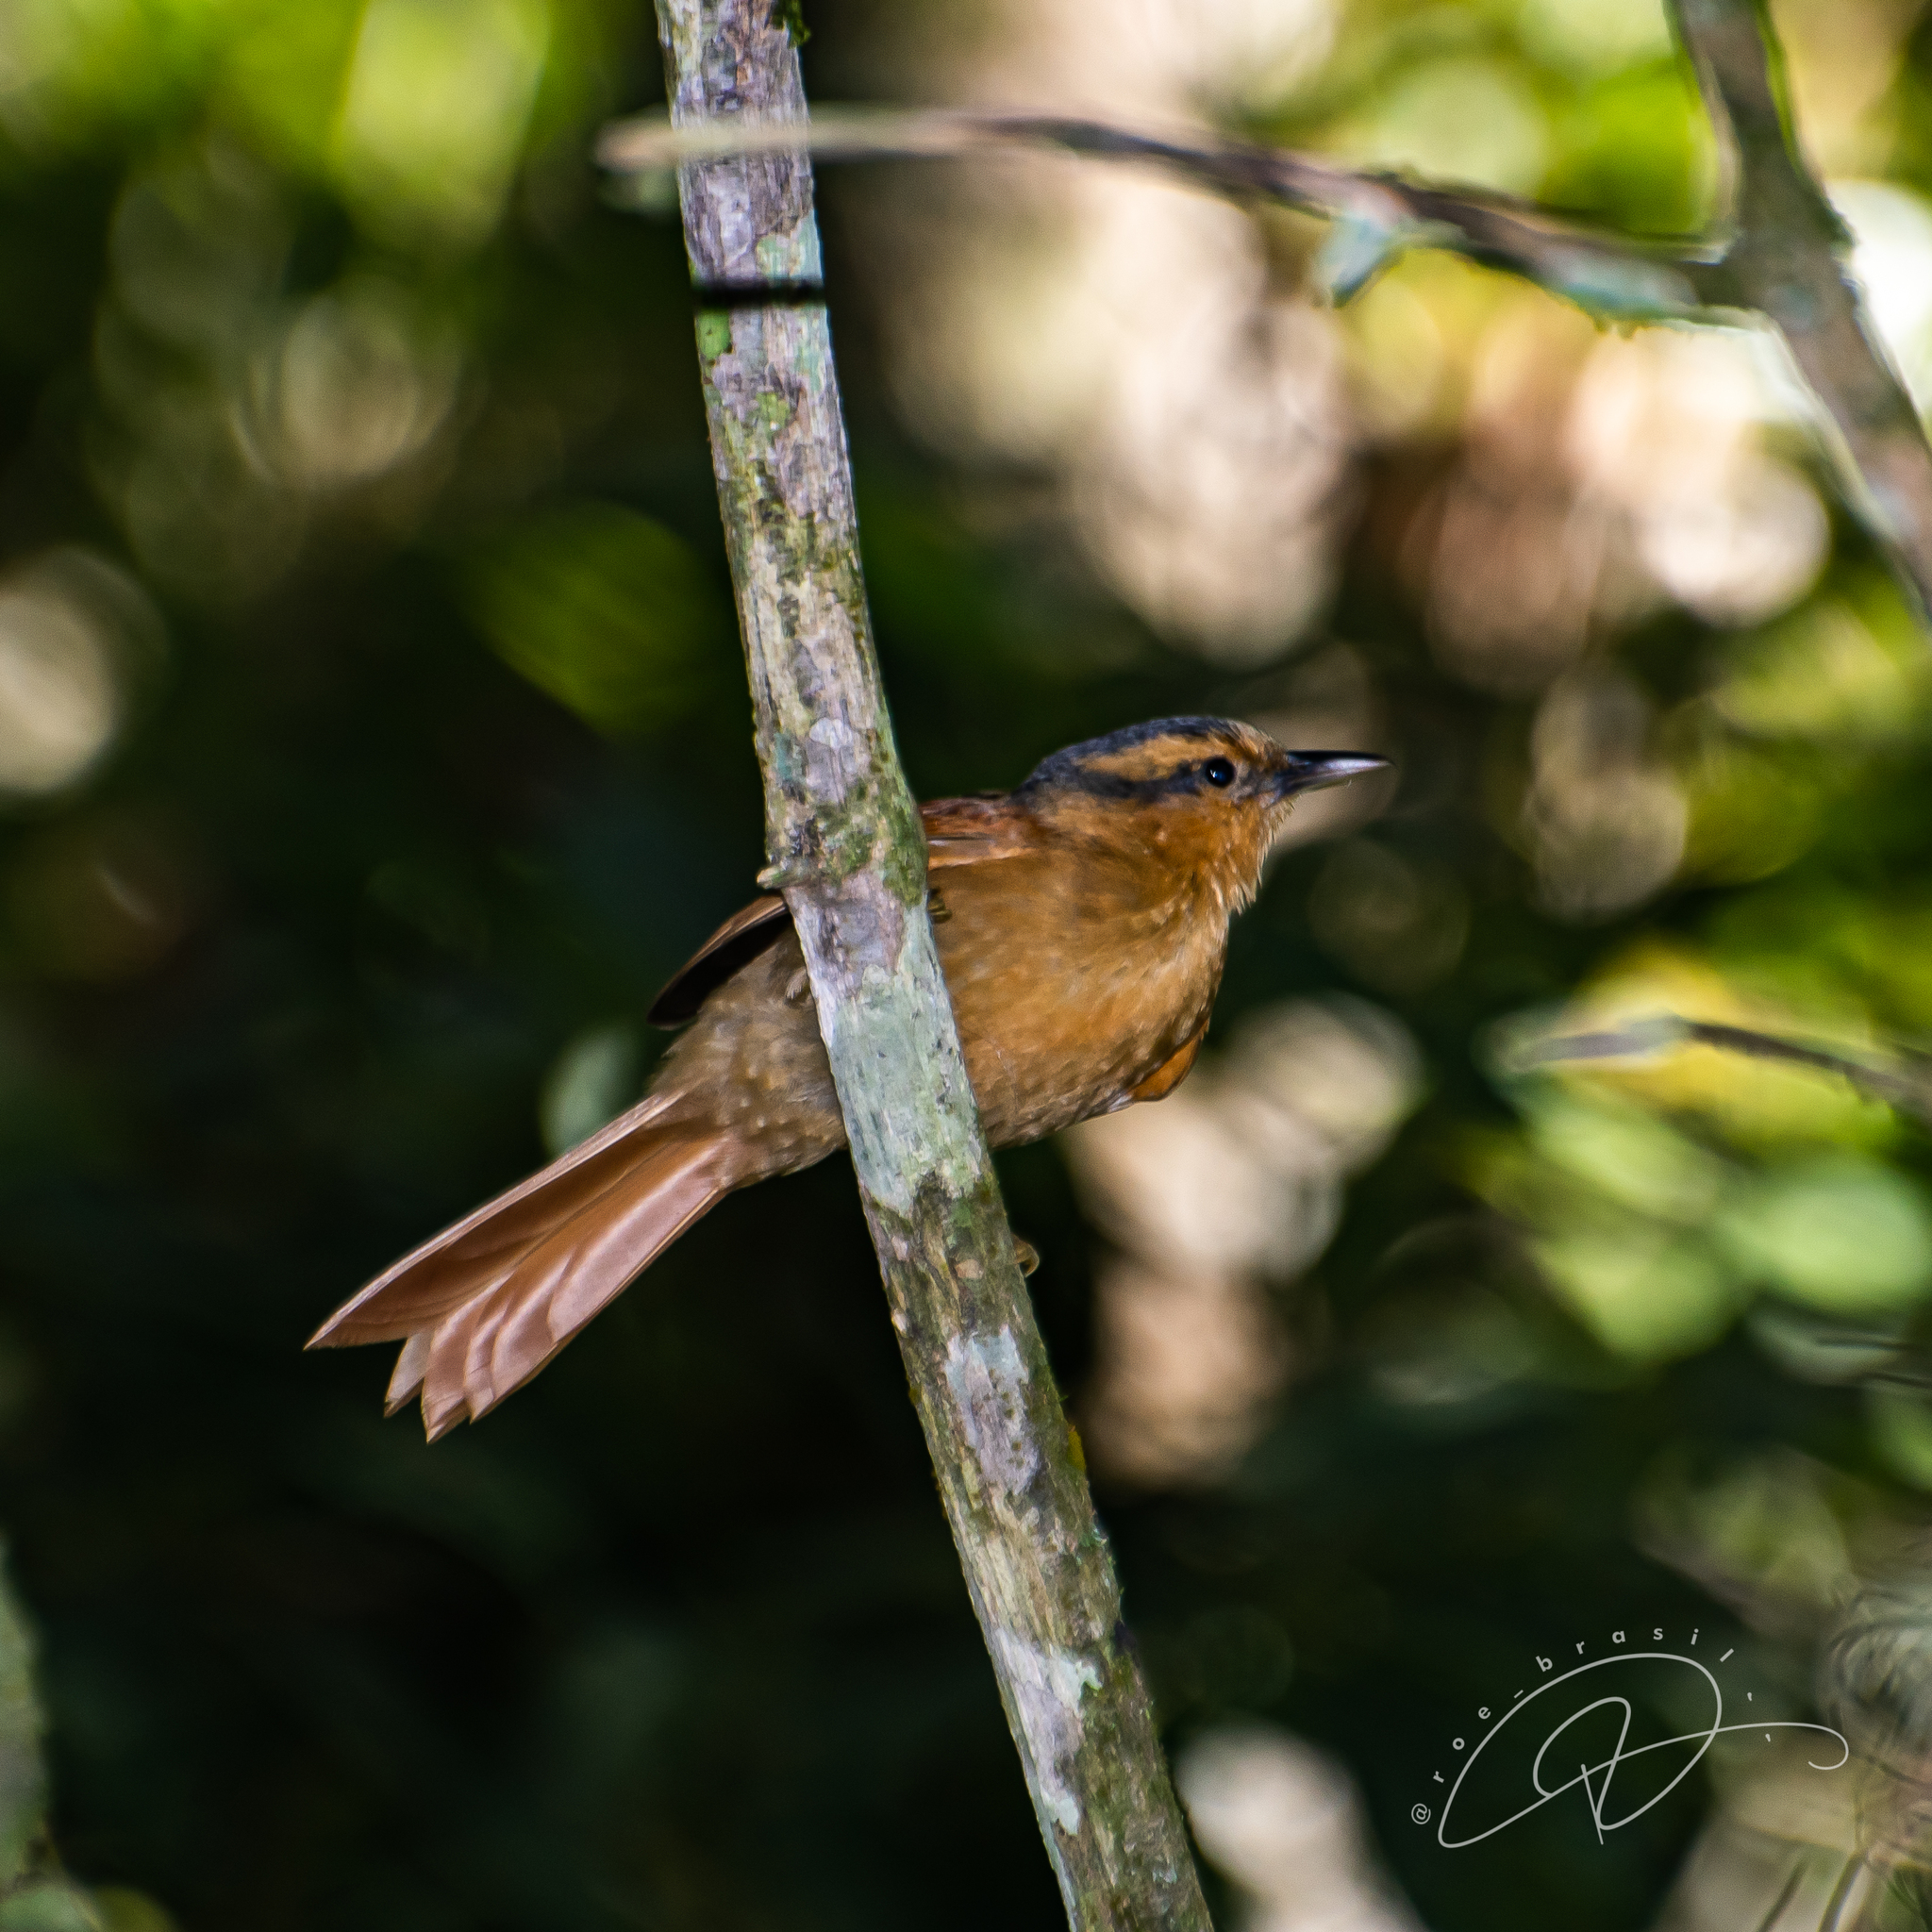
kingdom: Animalia
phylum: Chordata
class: Aves
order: Passeriformes
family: Furnariidae
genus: Philydor
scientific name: Philydor rufum
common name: Buff-fronted foliage-gleaner
